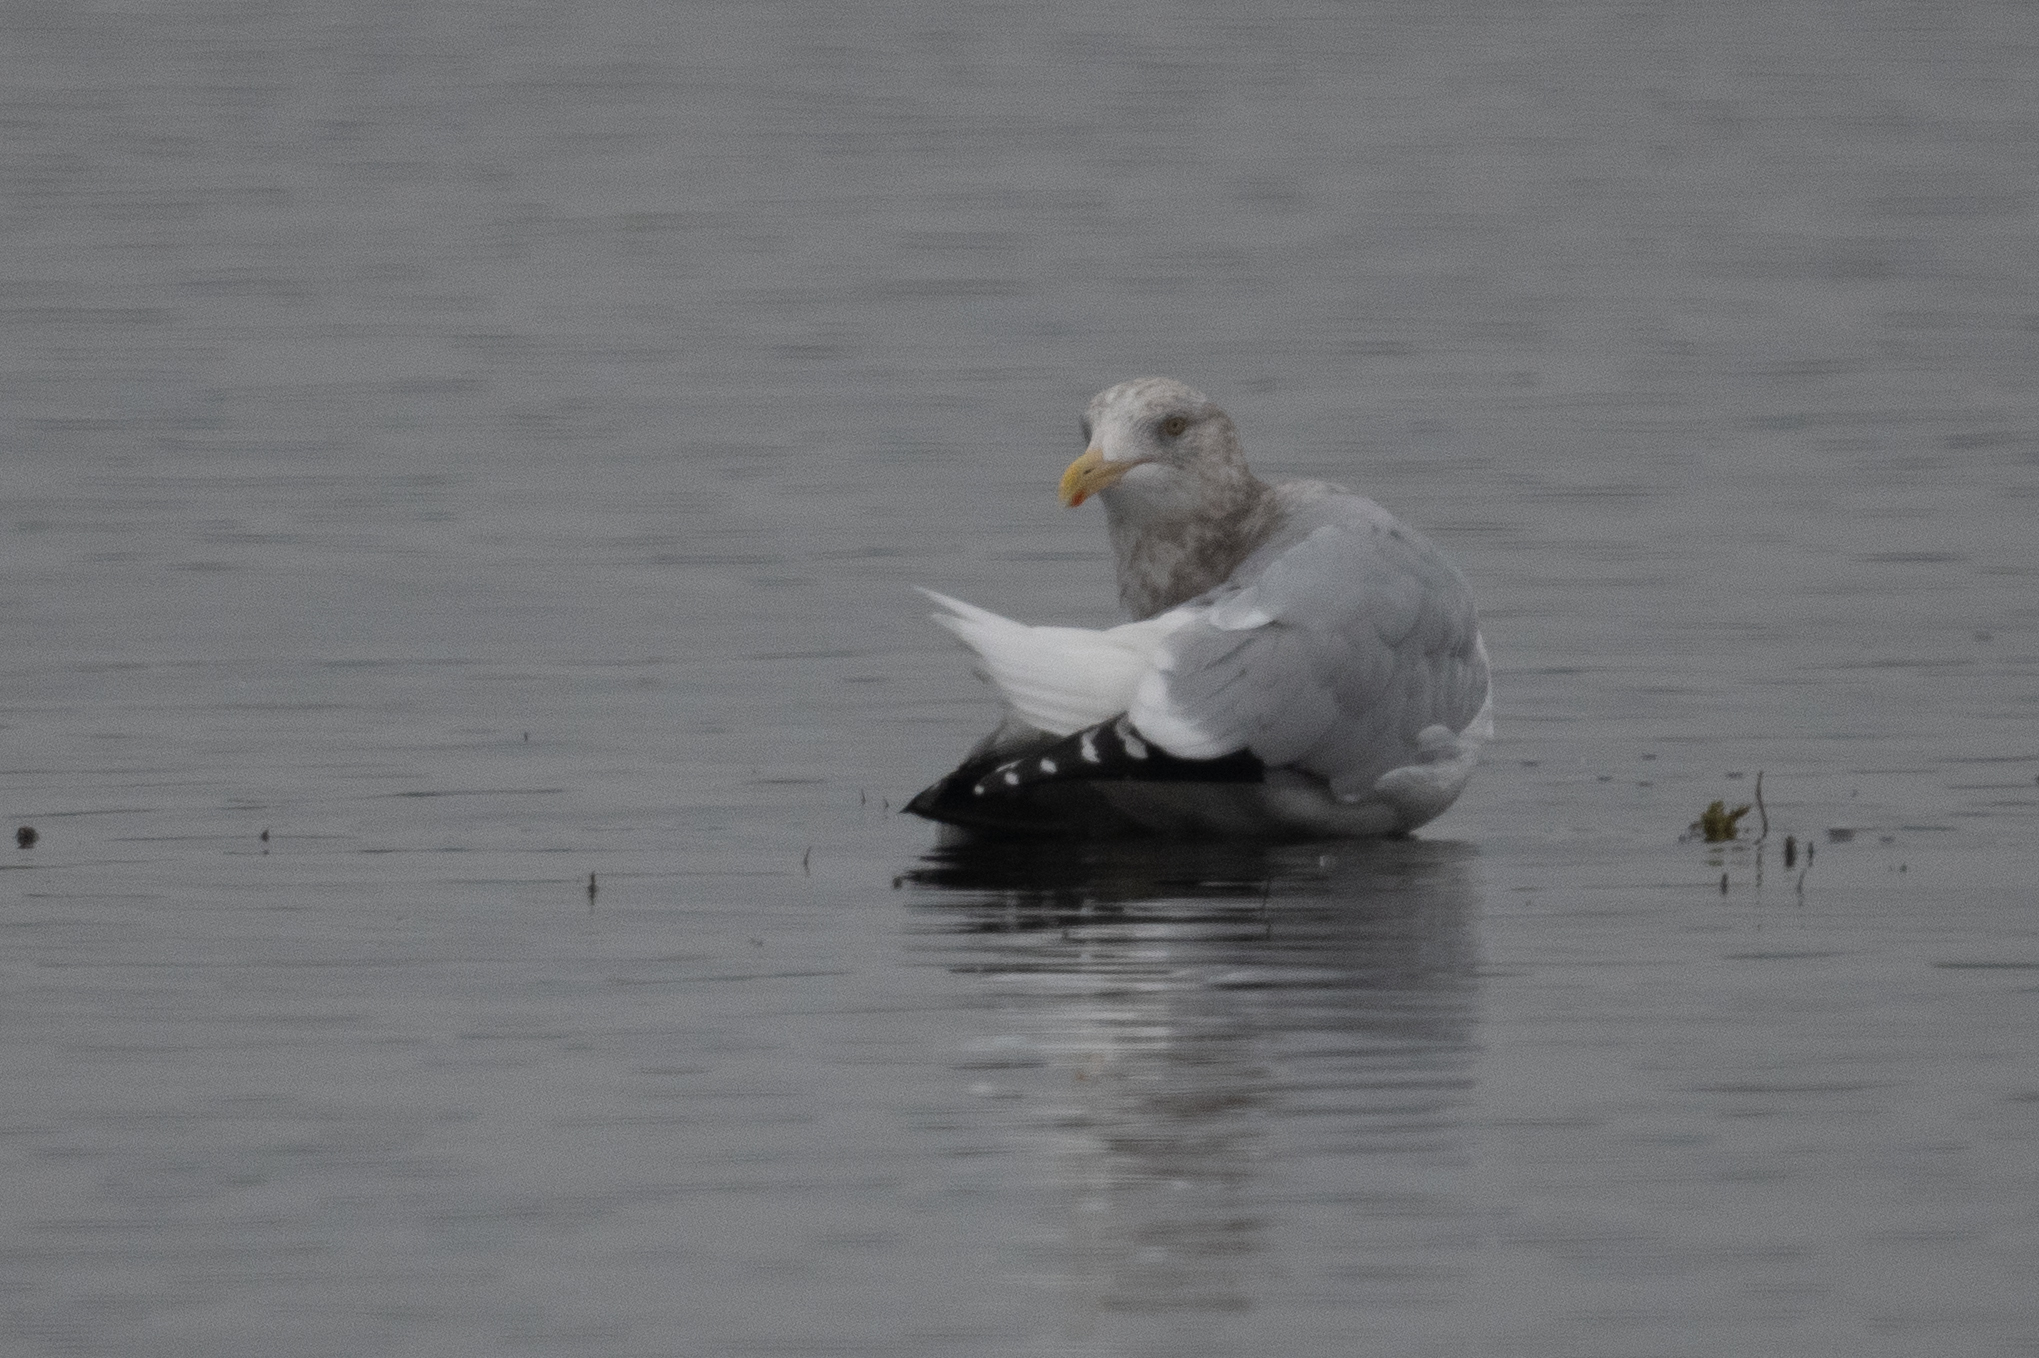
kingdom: Animalia
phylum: Chordata
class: Aves
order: Charadriiformes
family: Laridae
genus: Larus
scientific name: Larus argentatus
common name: Herring gull
